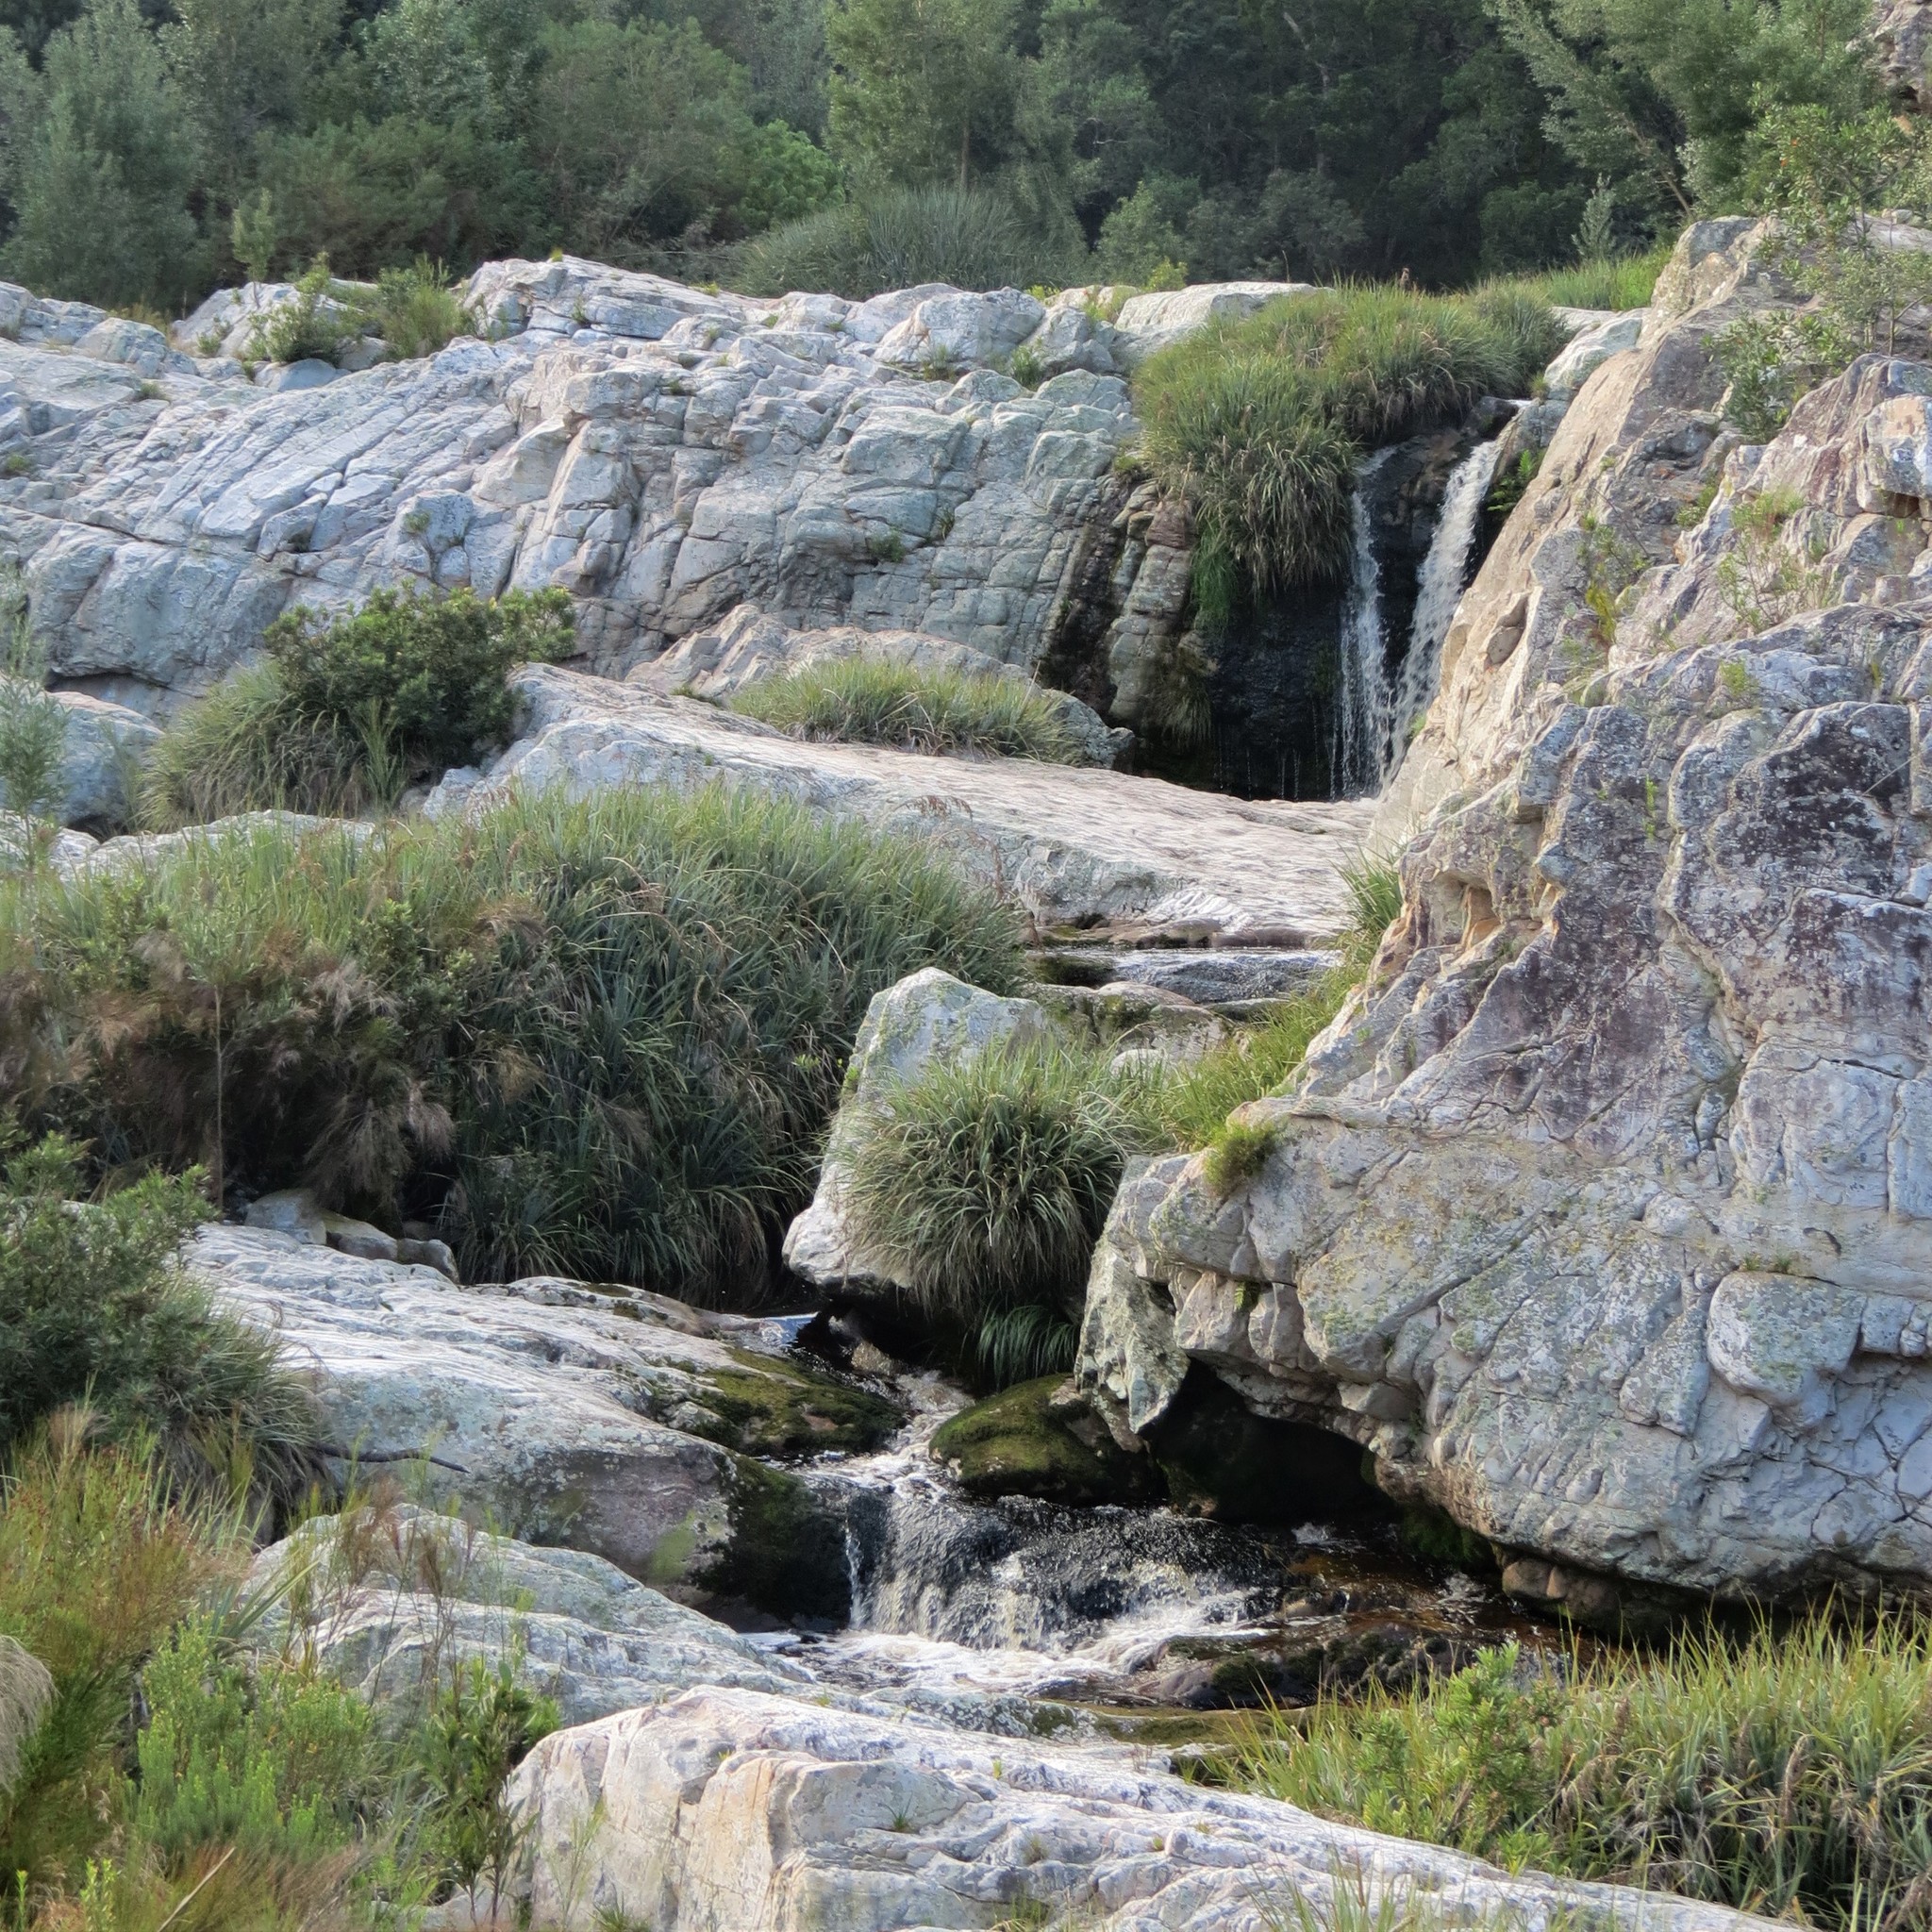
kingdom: Plantae
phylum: Tracheophyta
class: Liliopsida
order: Poales
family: Thurniaceae
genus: Prionium
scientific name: Prionium serratum
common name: Palmiet
